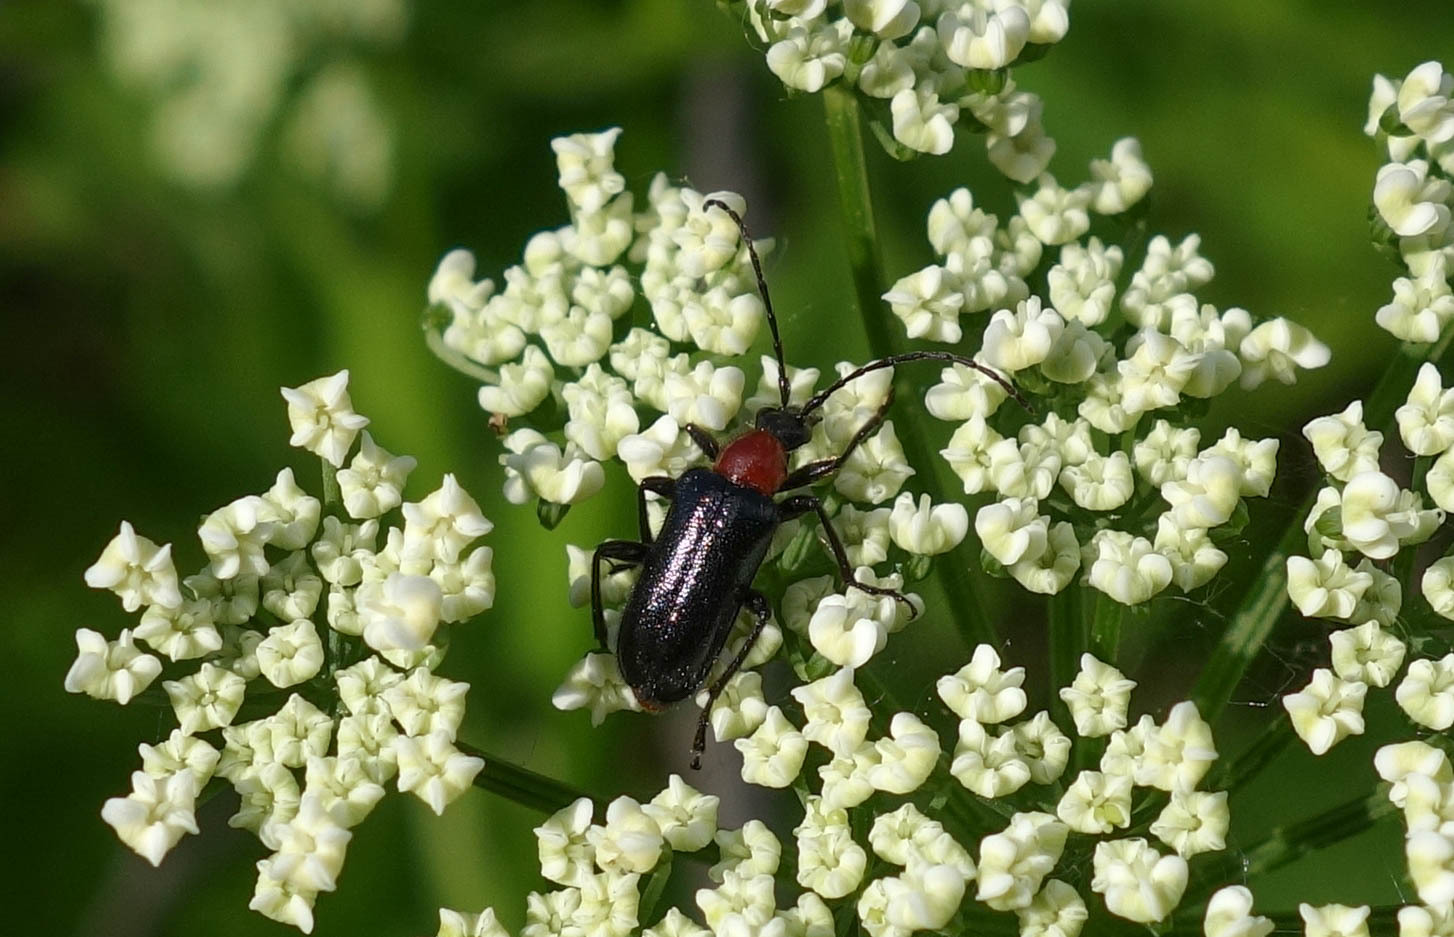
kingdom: Animalia
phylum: Arthropoda
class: Insecta
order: Coleoptera
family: Cerambycidae
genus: Dinoptera
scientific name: Dinoptera collaris
